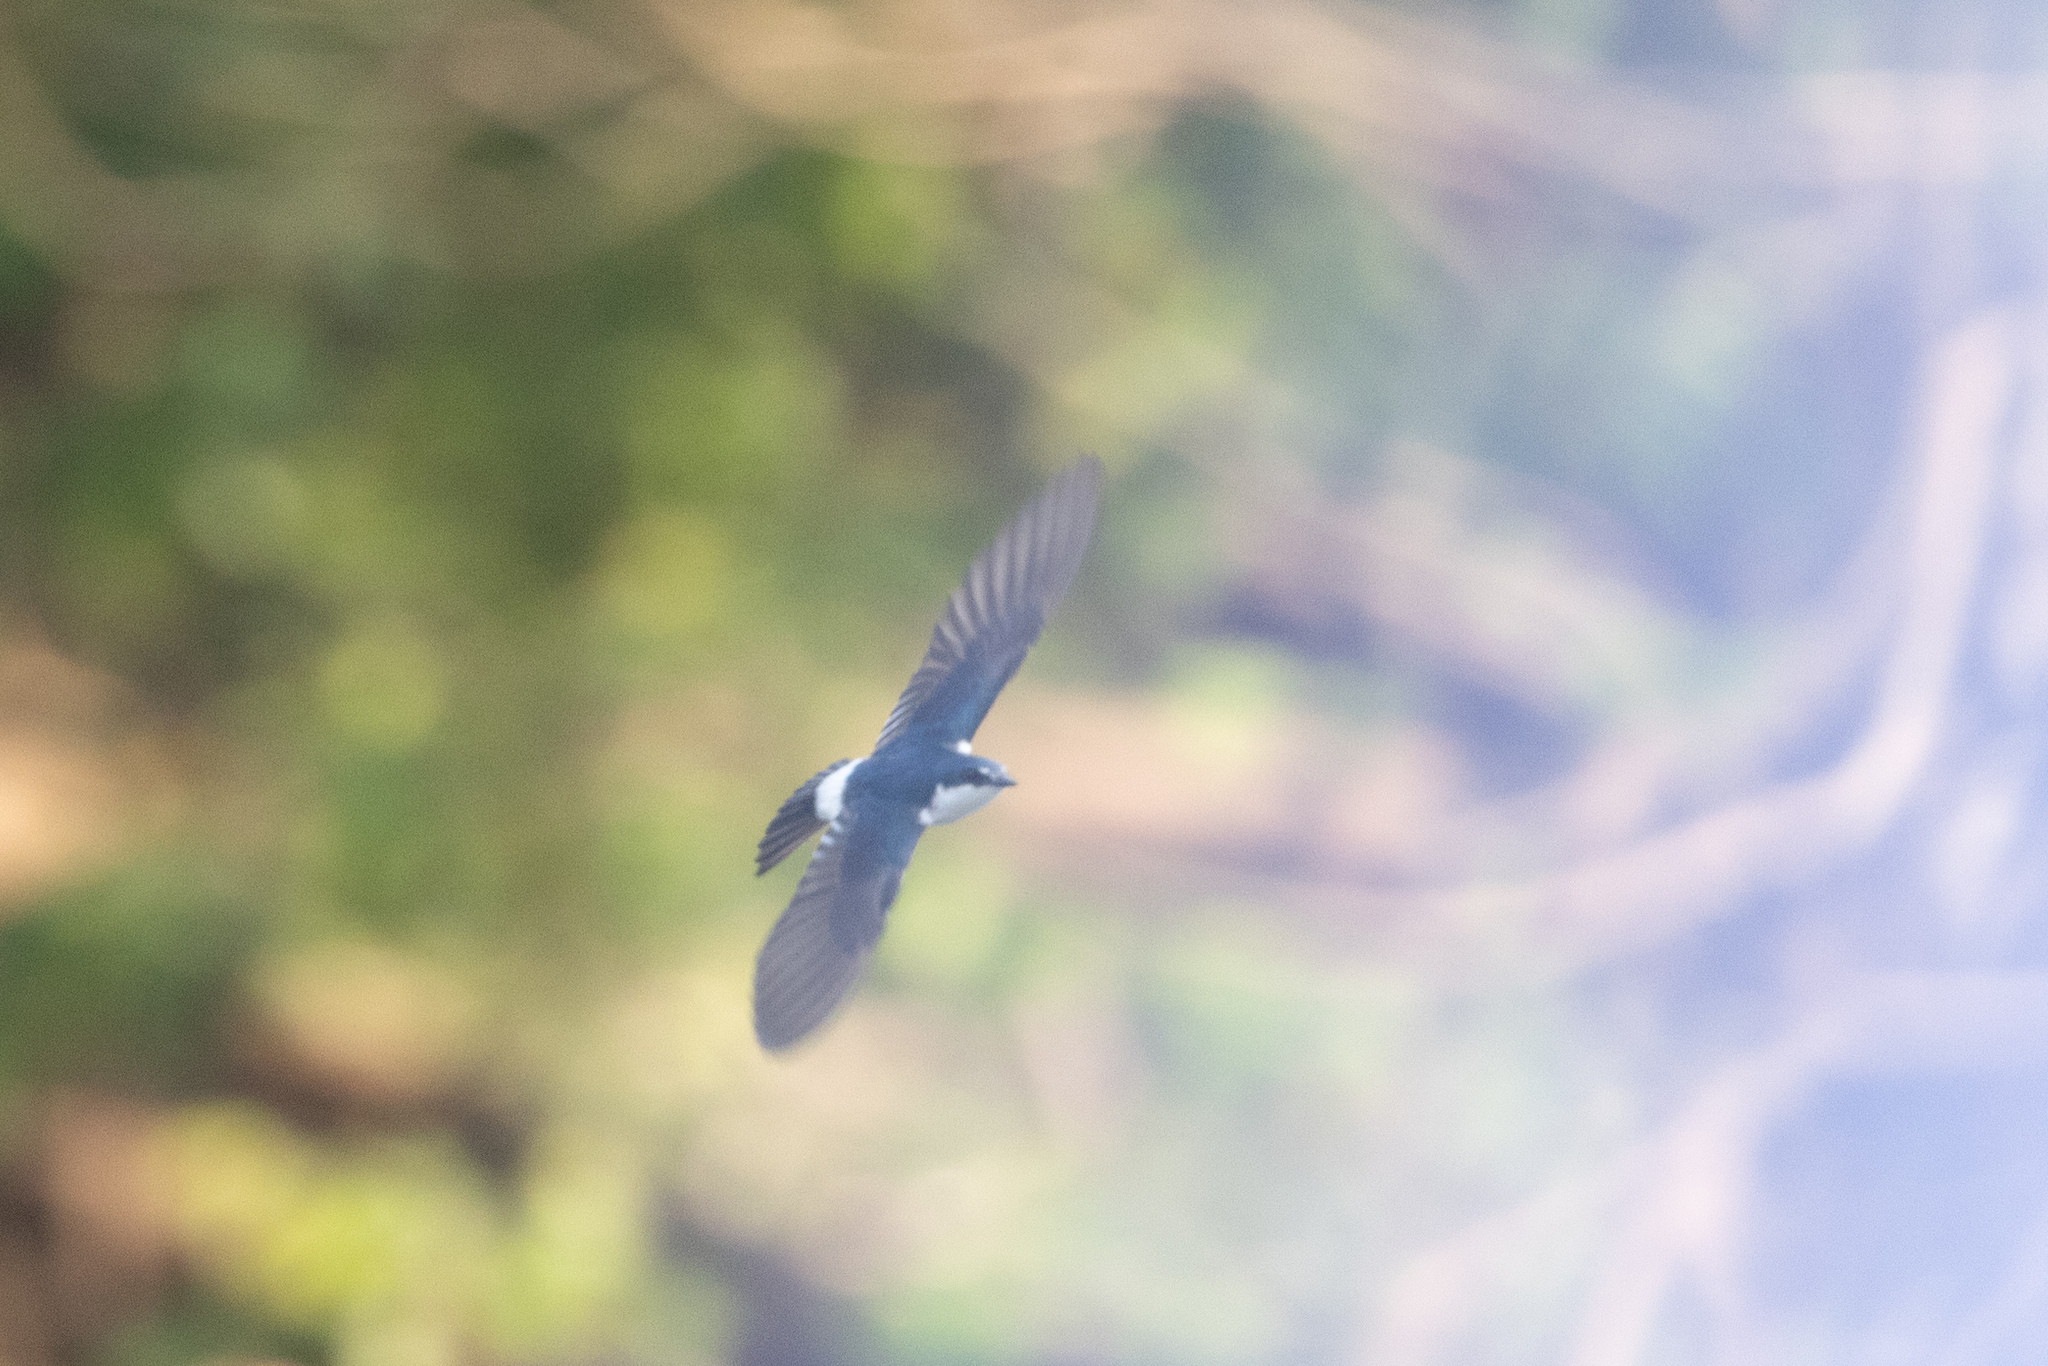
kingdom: Animalia
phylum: Chordata
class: Aves
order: Passeriformes
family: Hirundinidae
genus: Tachycineta
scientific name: Tachycineta albilinea
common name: Mangrove swallow
